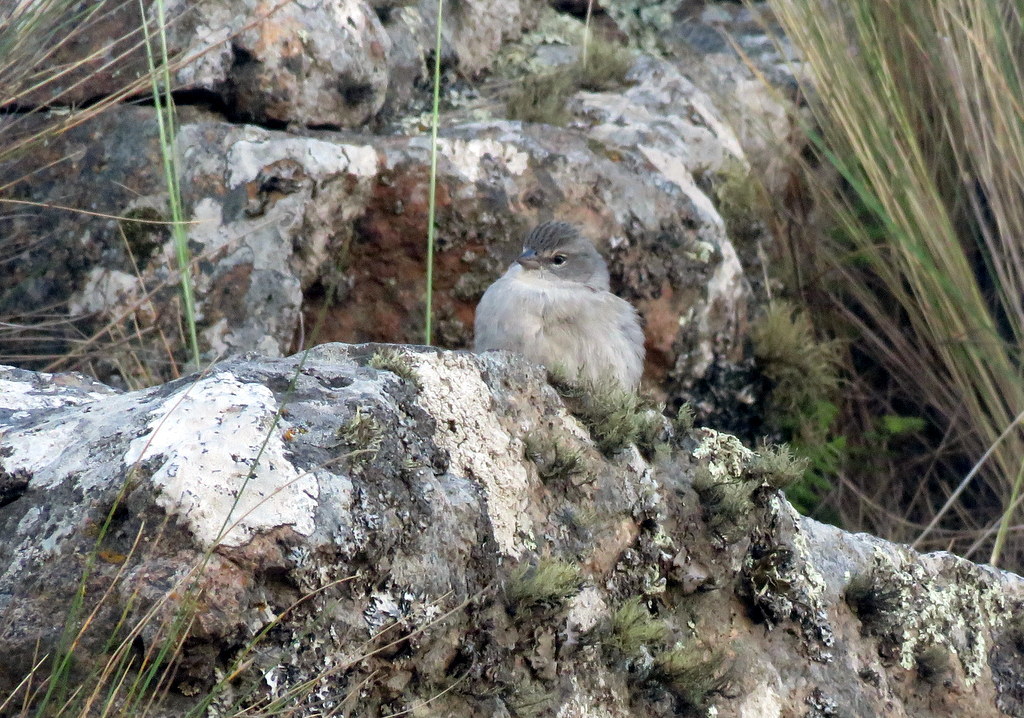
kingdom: Animalia
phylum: Chordata
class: Aves
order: Passeriformes
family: Thraupidae
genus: Geospizopsis
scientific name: Geospizopsis plebejus
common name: Ash-breasted sierra-finch
